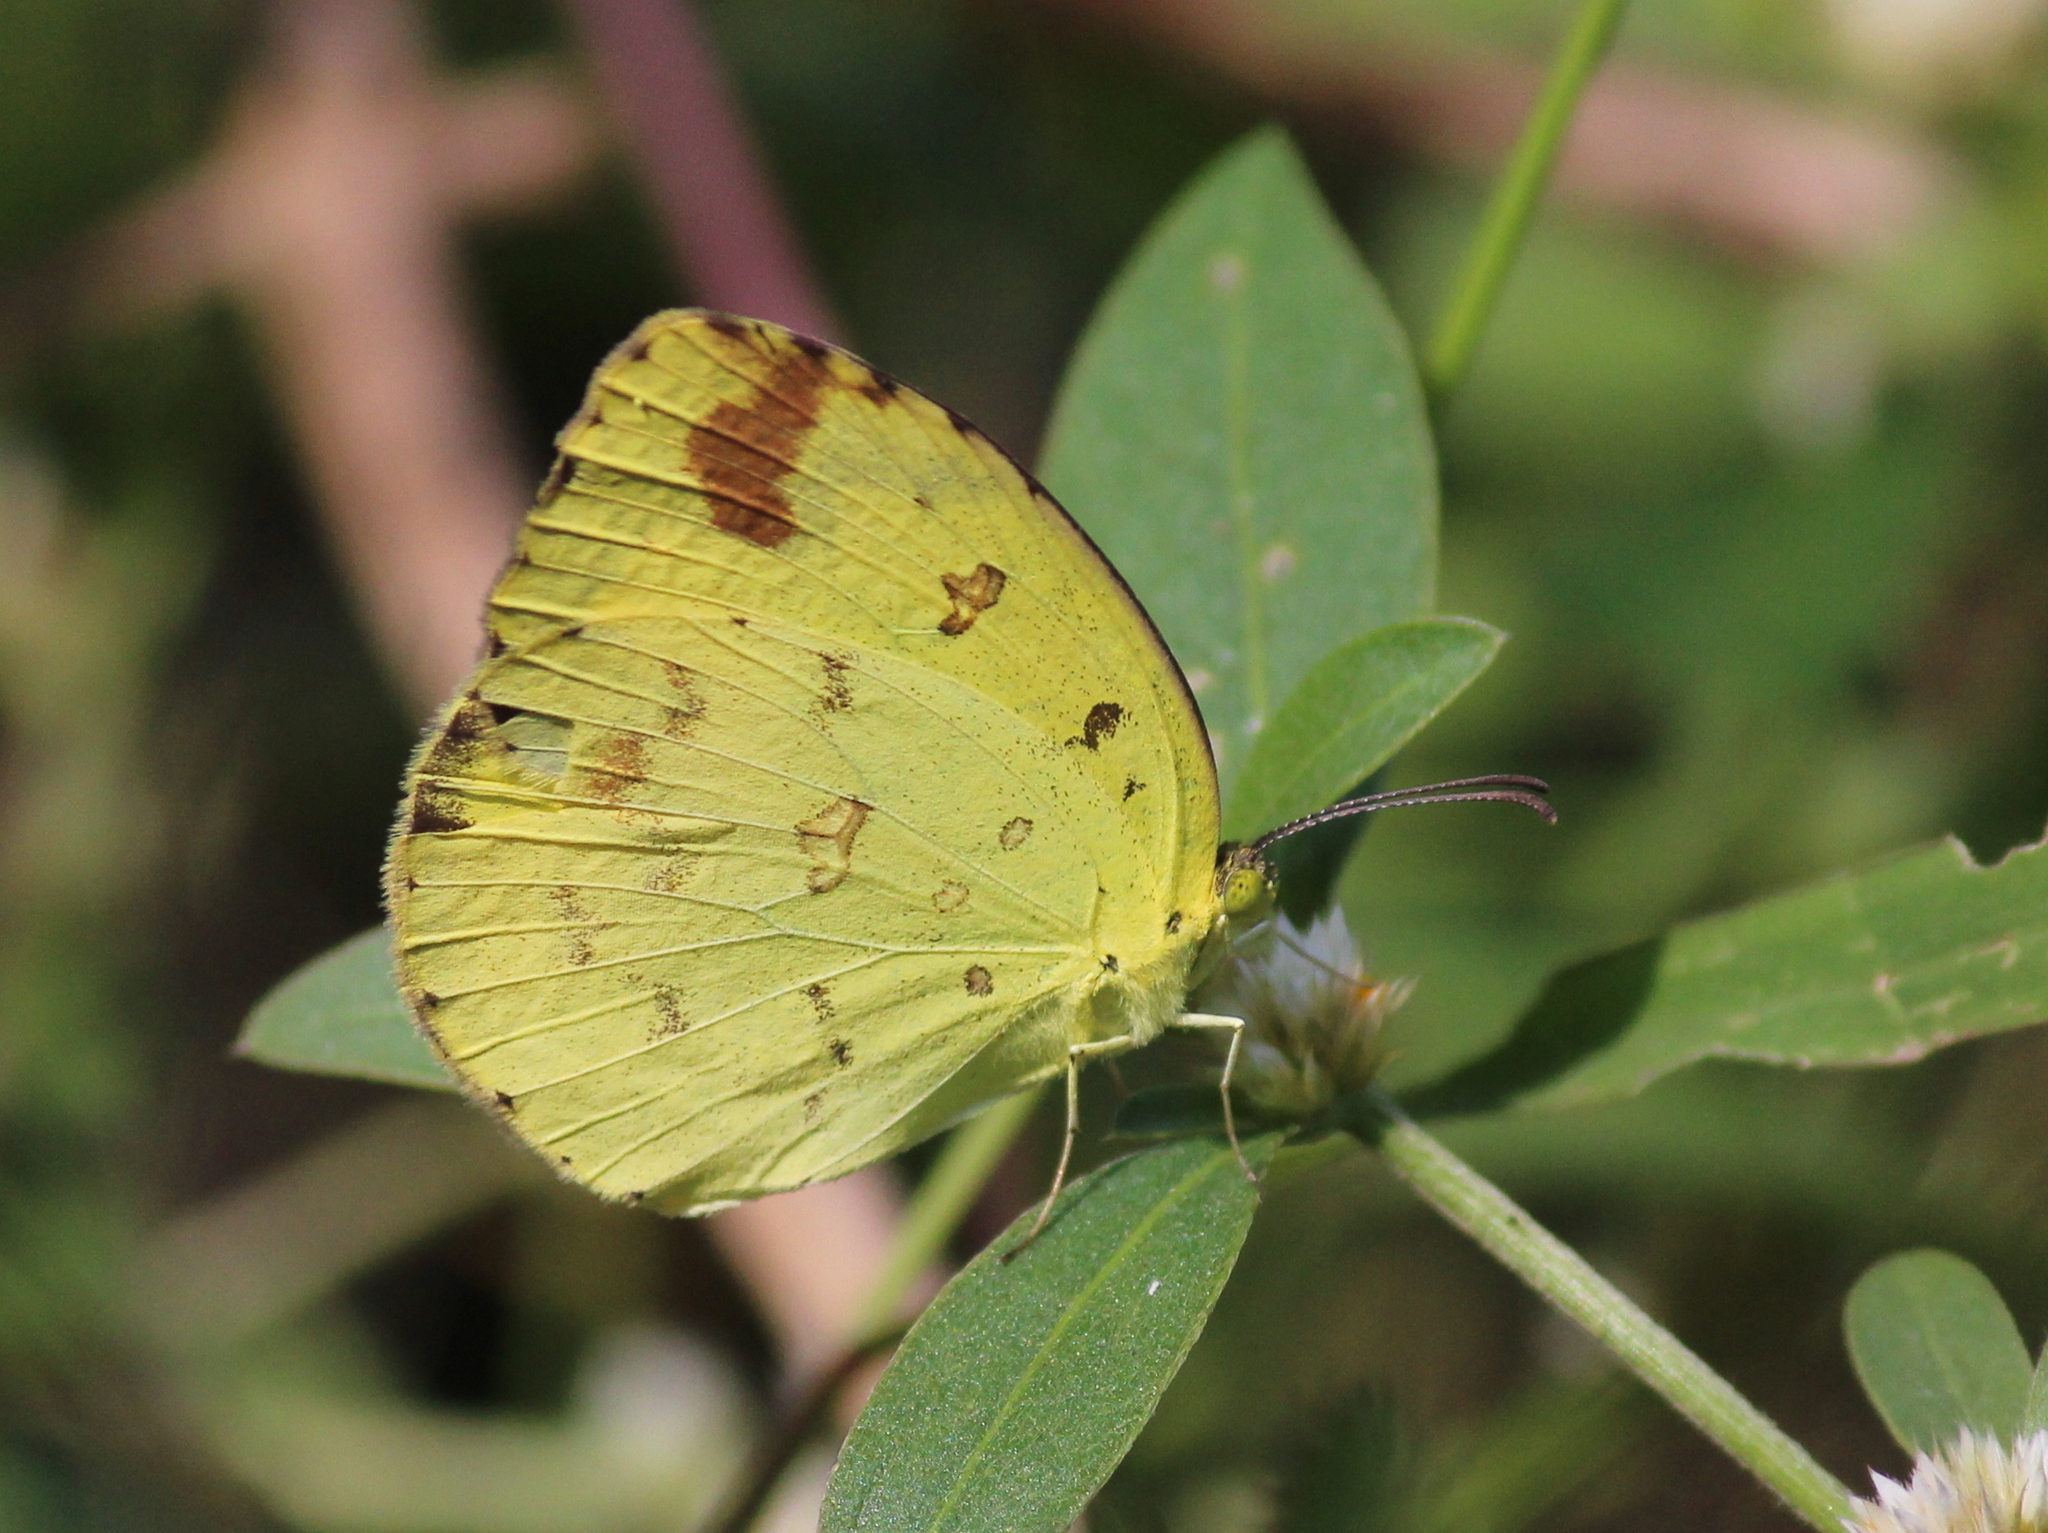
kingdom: Animalia
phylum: Arthropoda
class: Insecta
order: Lepidoptera
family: Pieridae
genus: Eurema
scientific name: Eurema hecabe
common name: Pale grass yellow
